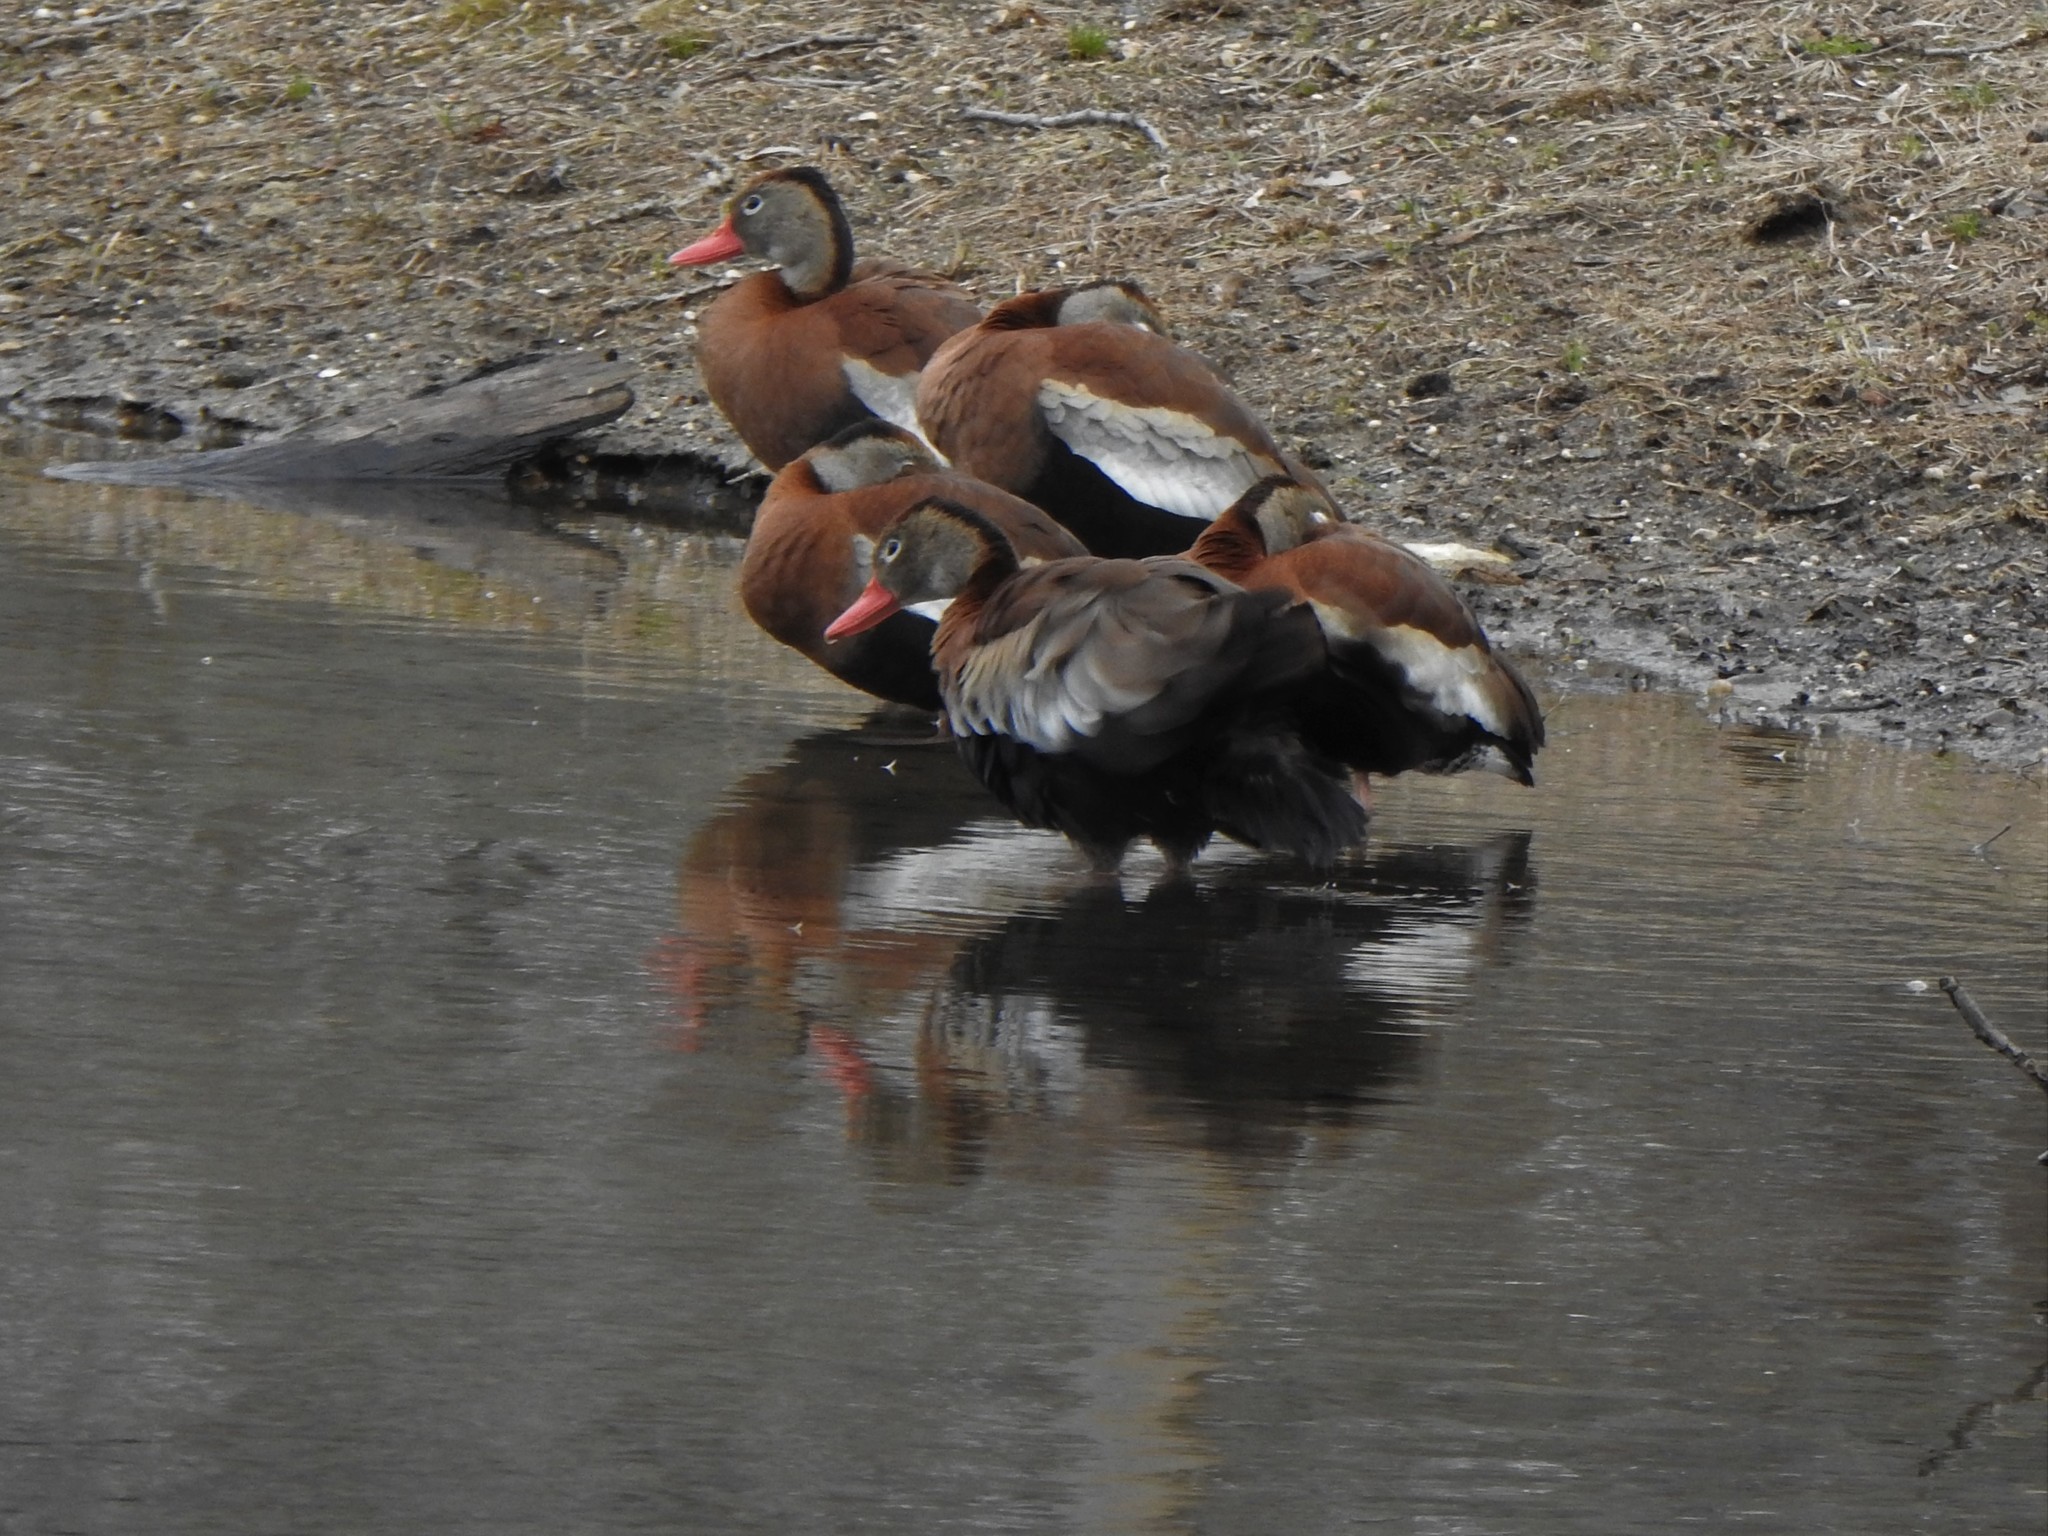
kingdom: Animalia
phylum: Chordata
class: Aves
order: Anseriformes
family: Anatidae
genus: Dendrocygna
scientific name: Dendrocygna autumnalis
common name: Black-bellied whistling duck
